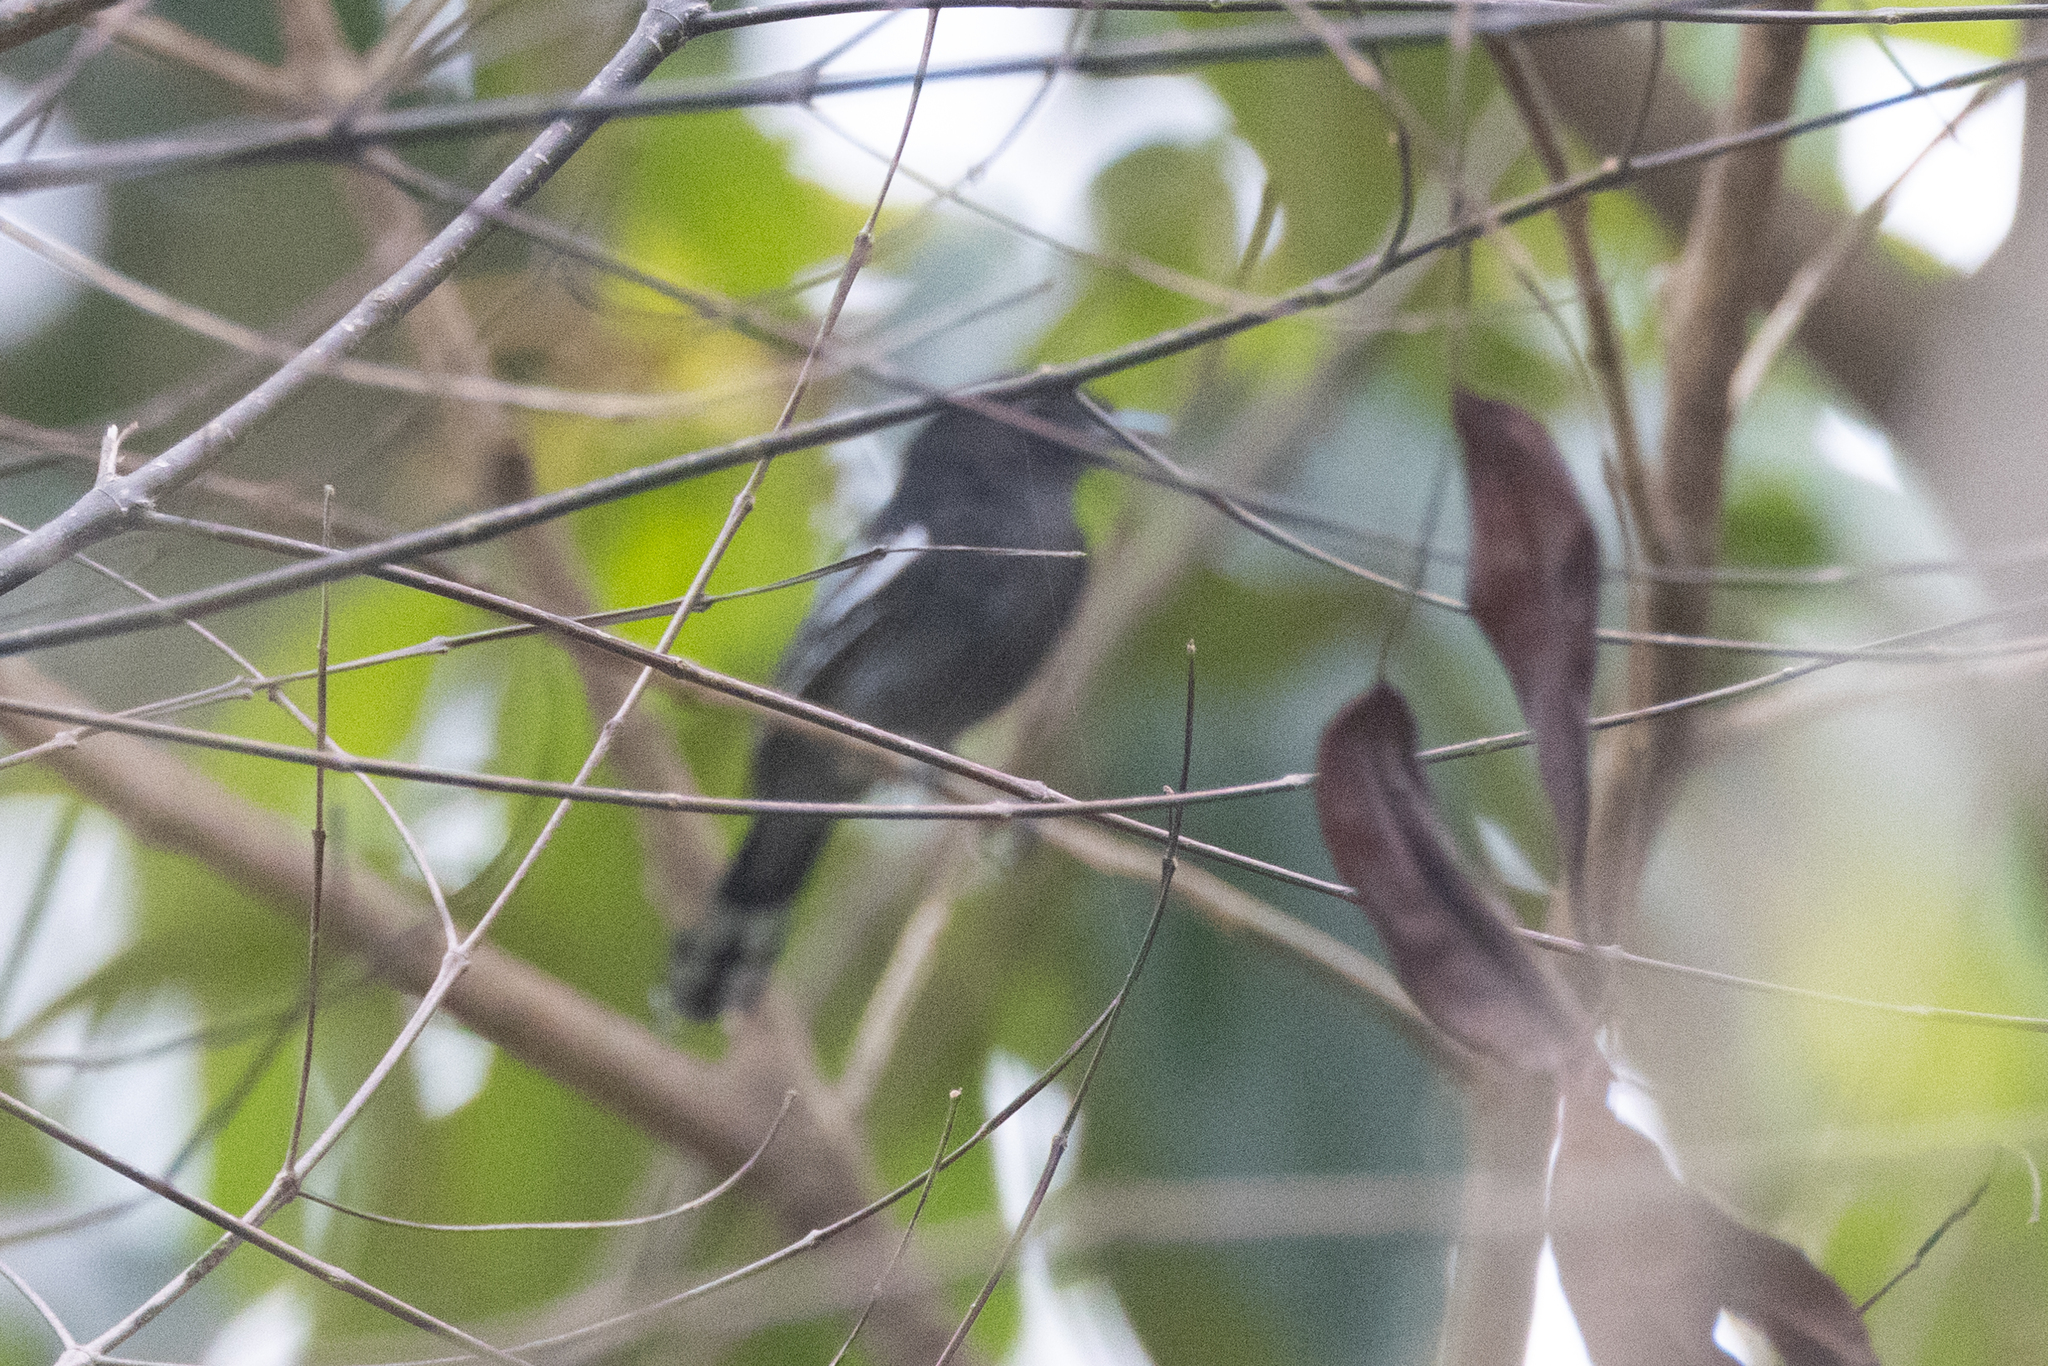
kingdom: Animalia
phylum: Chordata
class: Aves
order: Passeriformes
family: Cotingidae
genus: Pachyramphus
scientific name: Pachyramphus polychopterus
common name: White-winged becard
